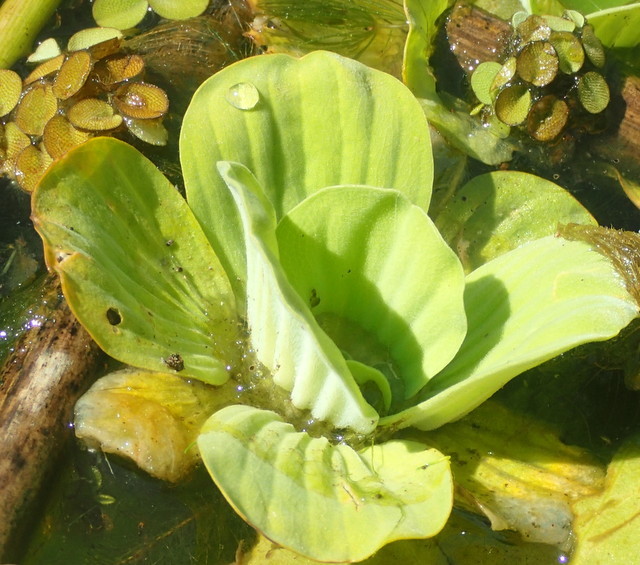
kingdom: Plantae
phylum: Tracheophyta
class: Liliopsida
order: Alismatales
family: Araceae
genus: Pistia
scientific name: Pistia stratiotes
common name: Water lettuce
